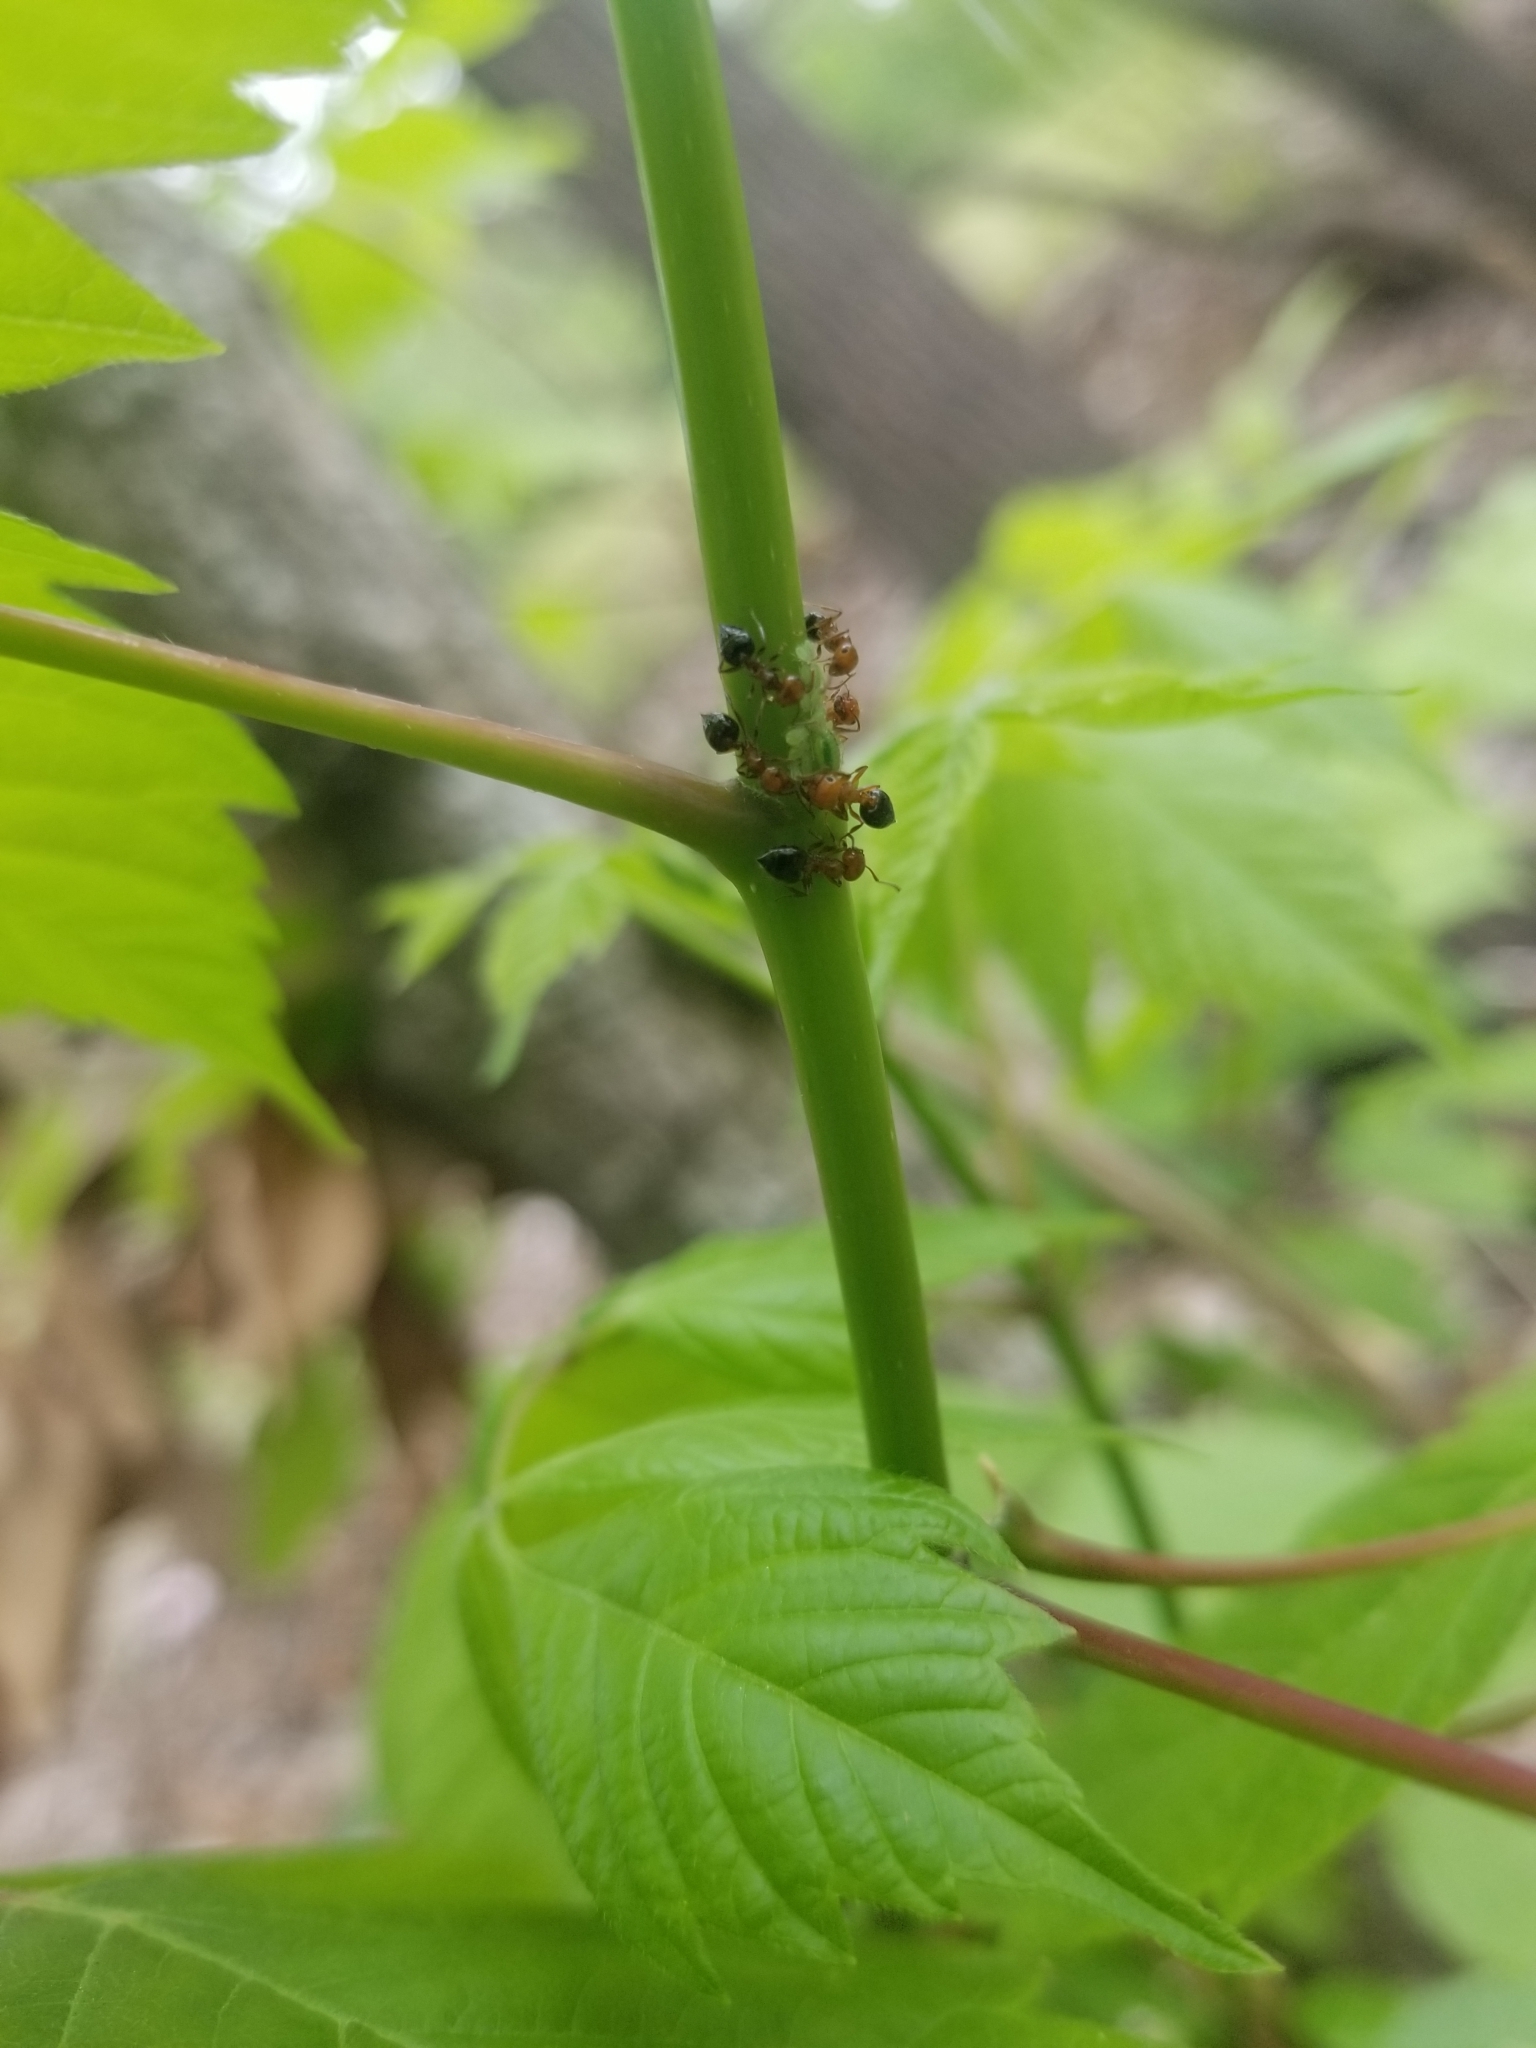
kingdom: Animalia
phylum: Arthropoda
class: Insecta
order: Hymenoptera
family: Formicidae
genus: Crematogaster
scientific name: Crematogaster laeviuscula
